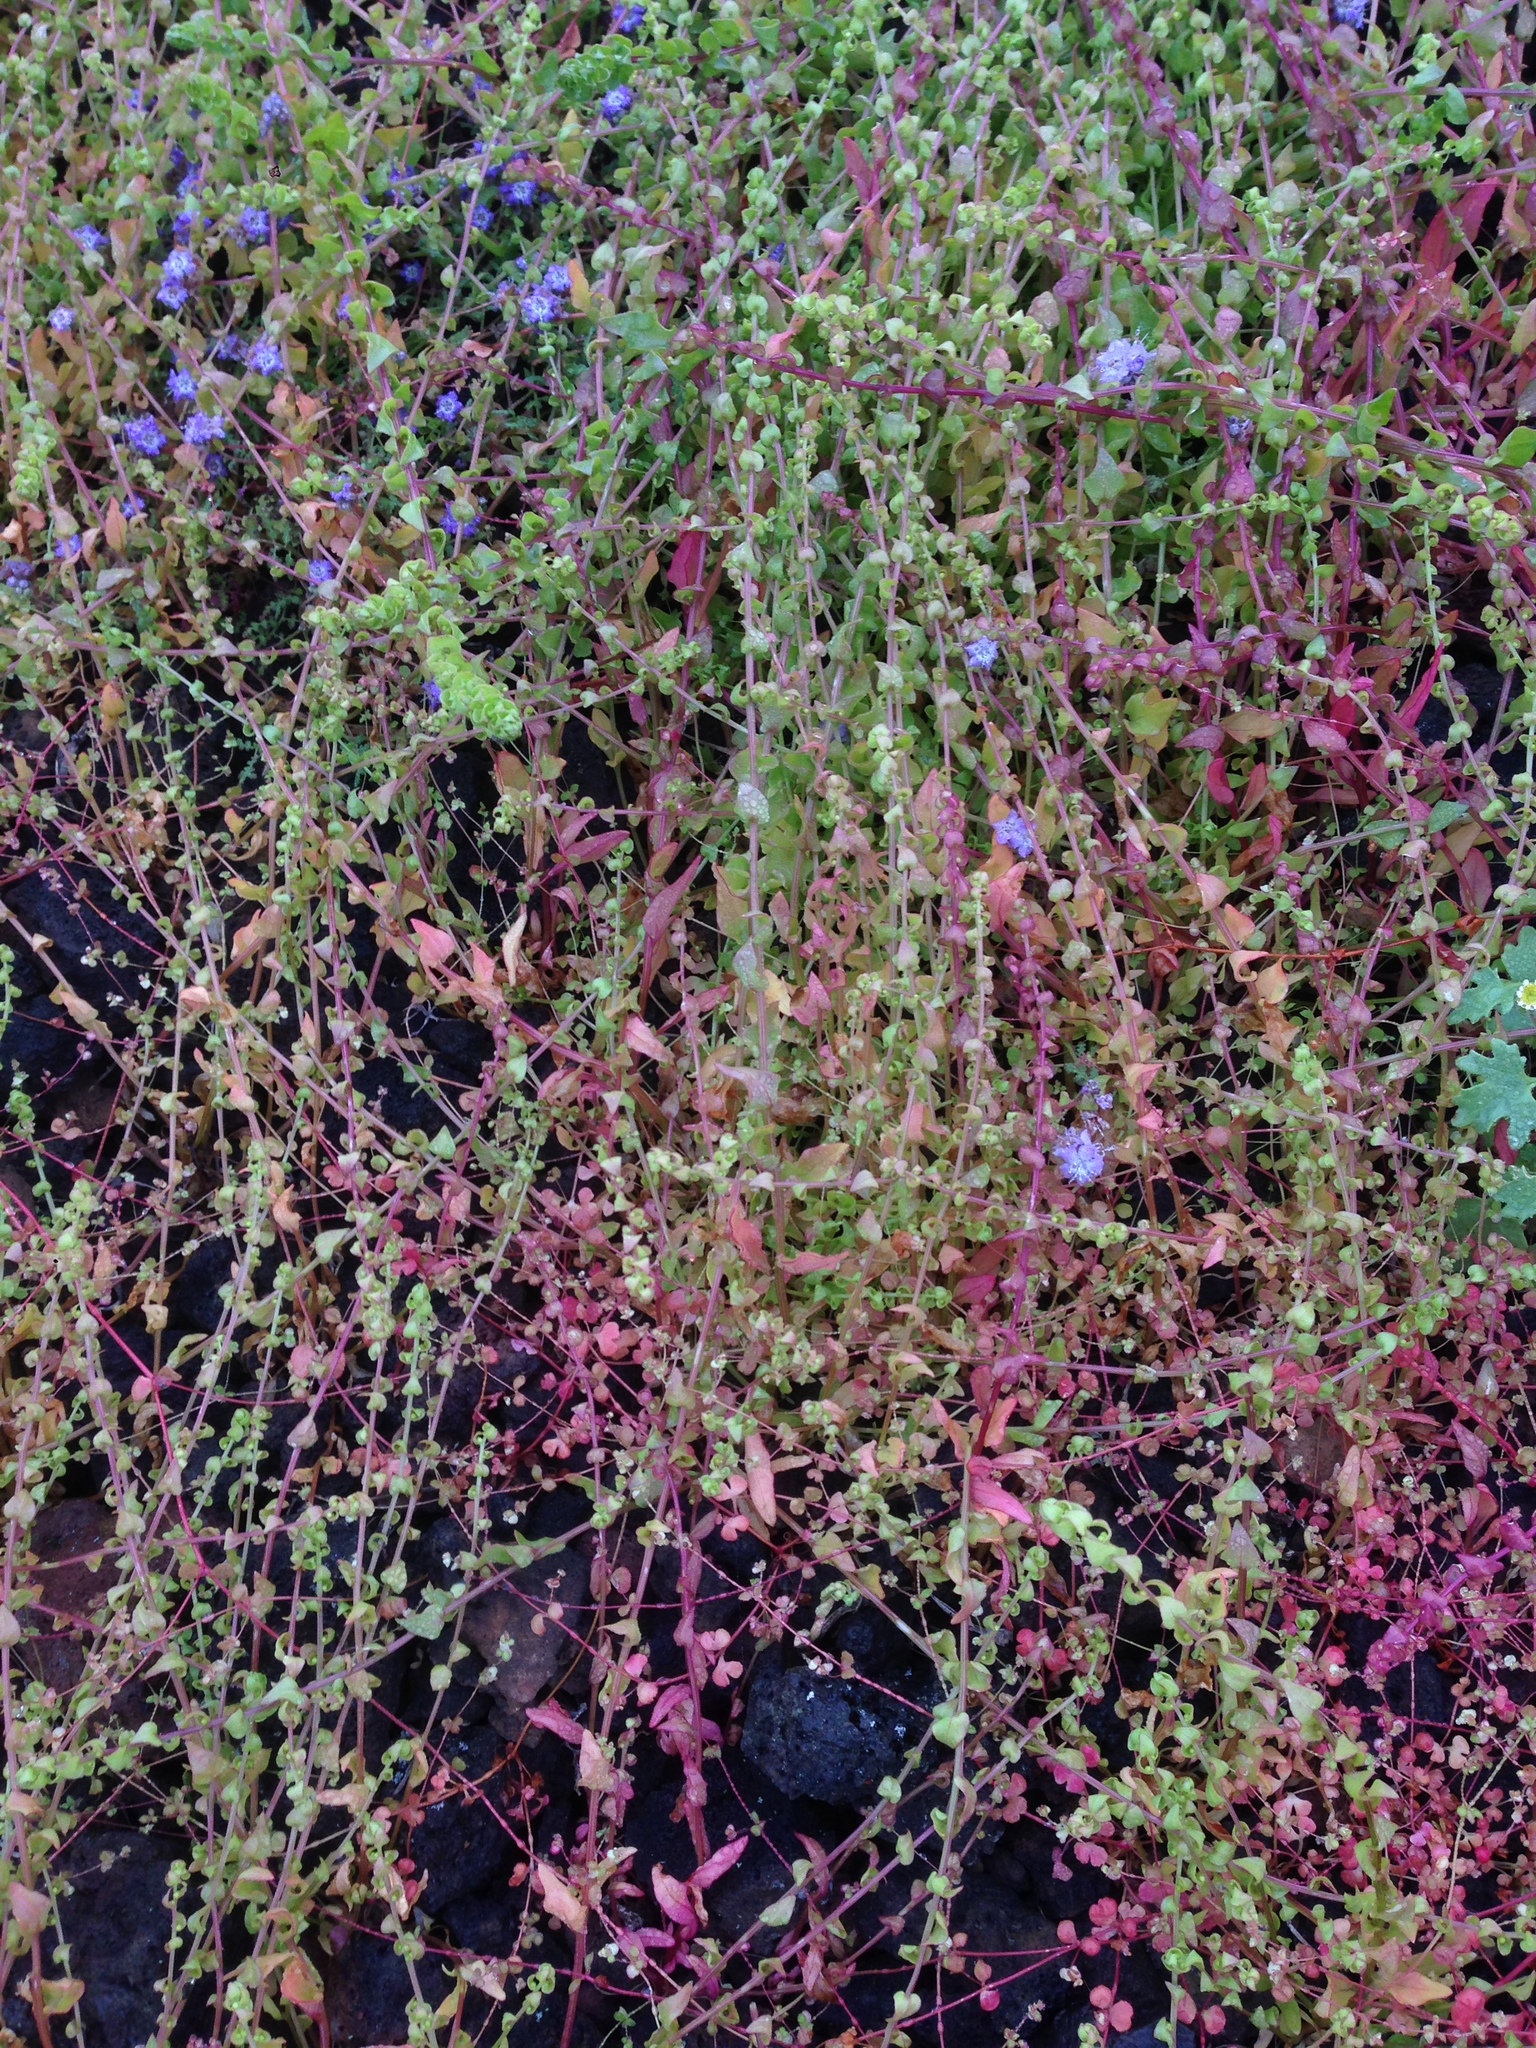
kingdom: Plantae
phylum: Tracheophyta
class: Magnoliopsida
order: Caryophyllales
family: Amaranthaceae
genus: Aphanisma
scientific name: Aphanisma blitoides
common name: Aphanisma
